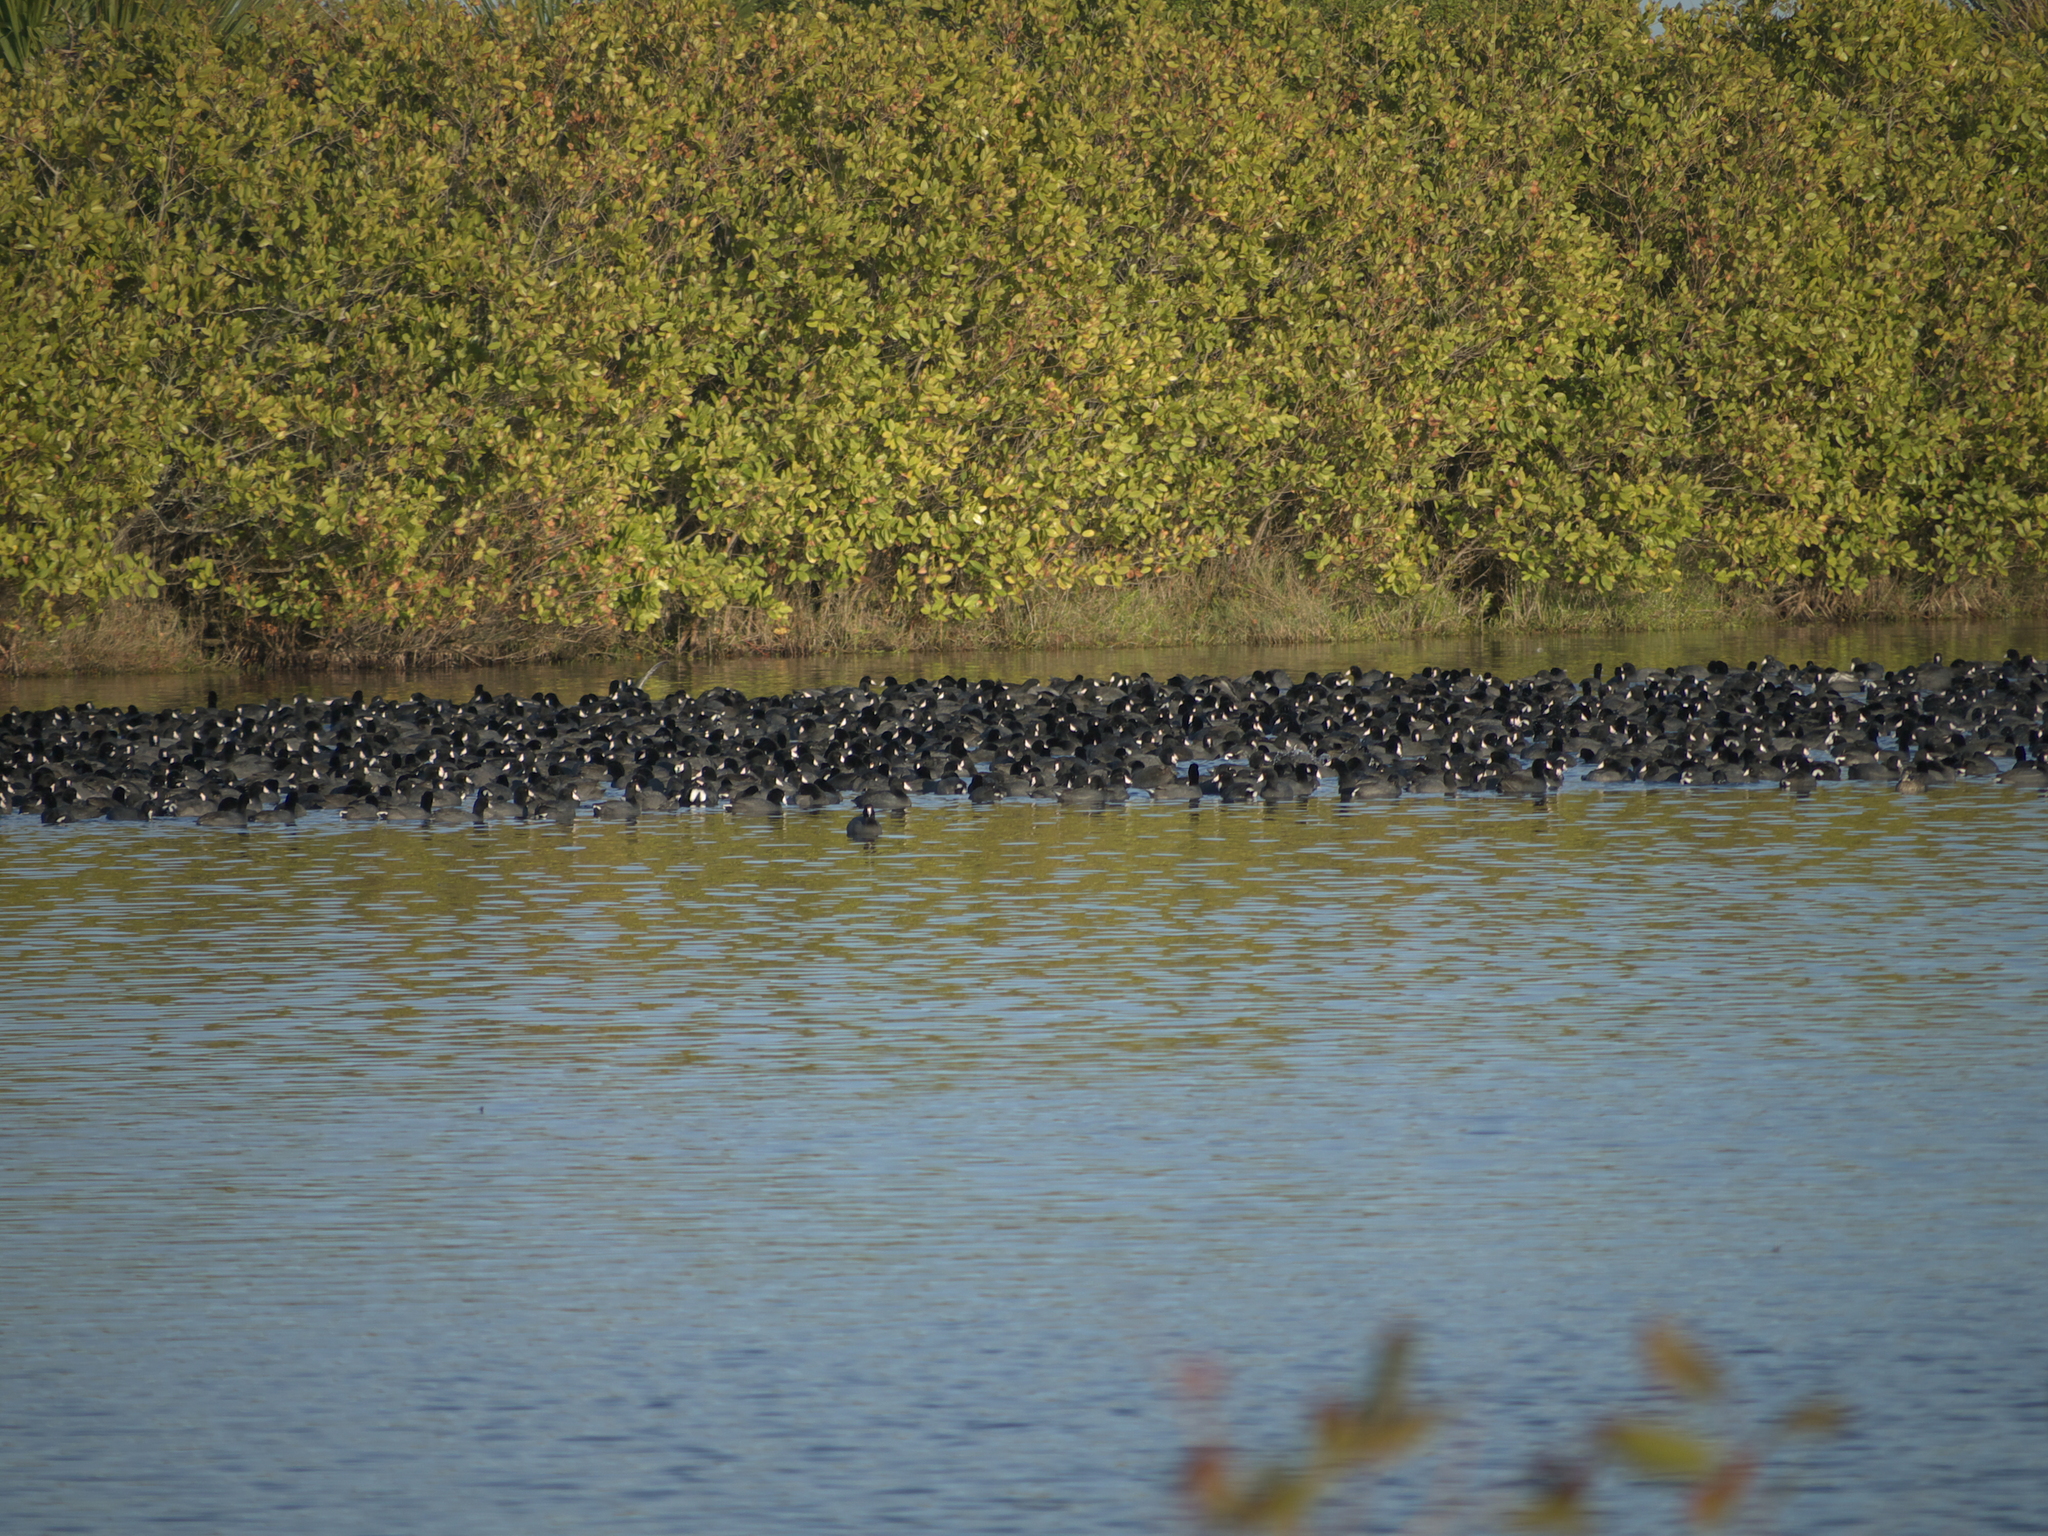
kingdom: Animalia
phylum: Chordata
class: Aves
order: Gruiformes
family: Rallidae
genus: Fulica
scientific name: Fulica americana
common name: American coot
